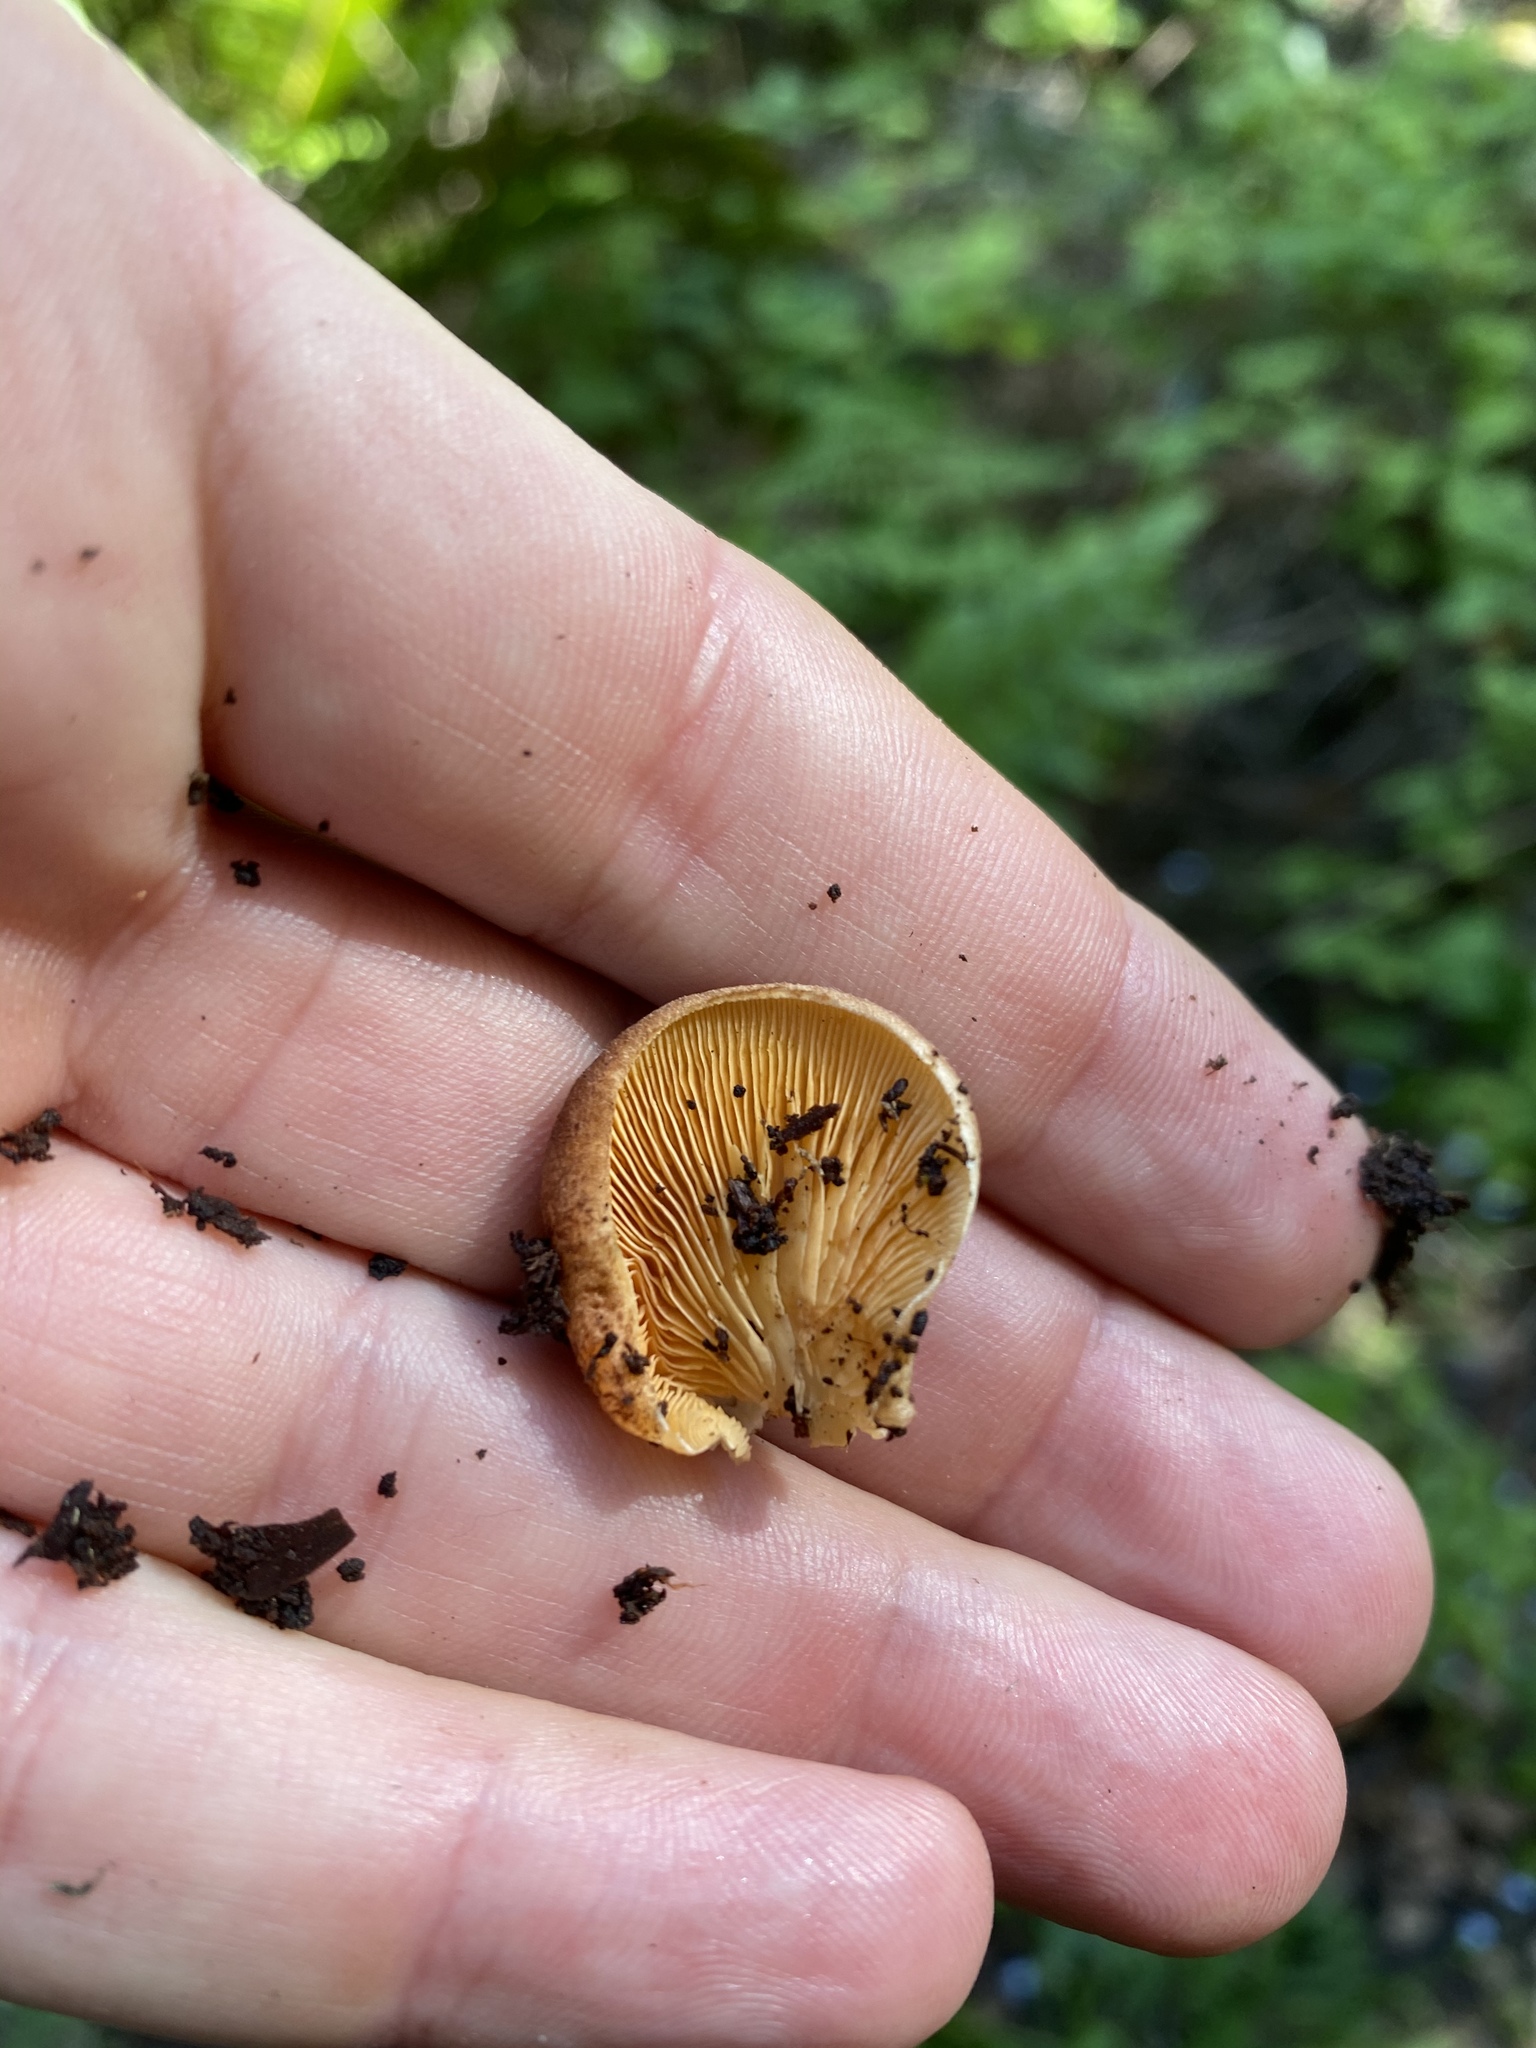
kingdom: Fungi
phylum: Basidiomycota
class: Agaricomycetes
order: Agaricales
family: Crepidotaceae
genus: Crepidotus
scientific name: Crepidotus crocophyllus
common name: Saffron oysterling
